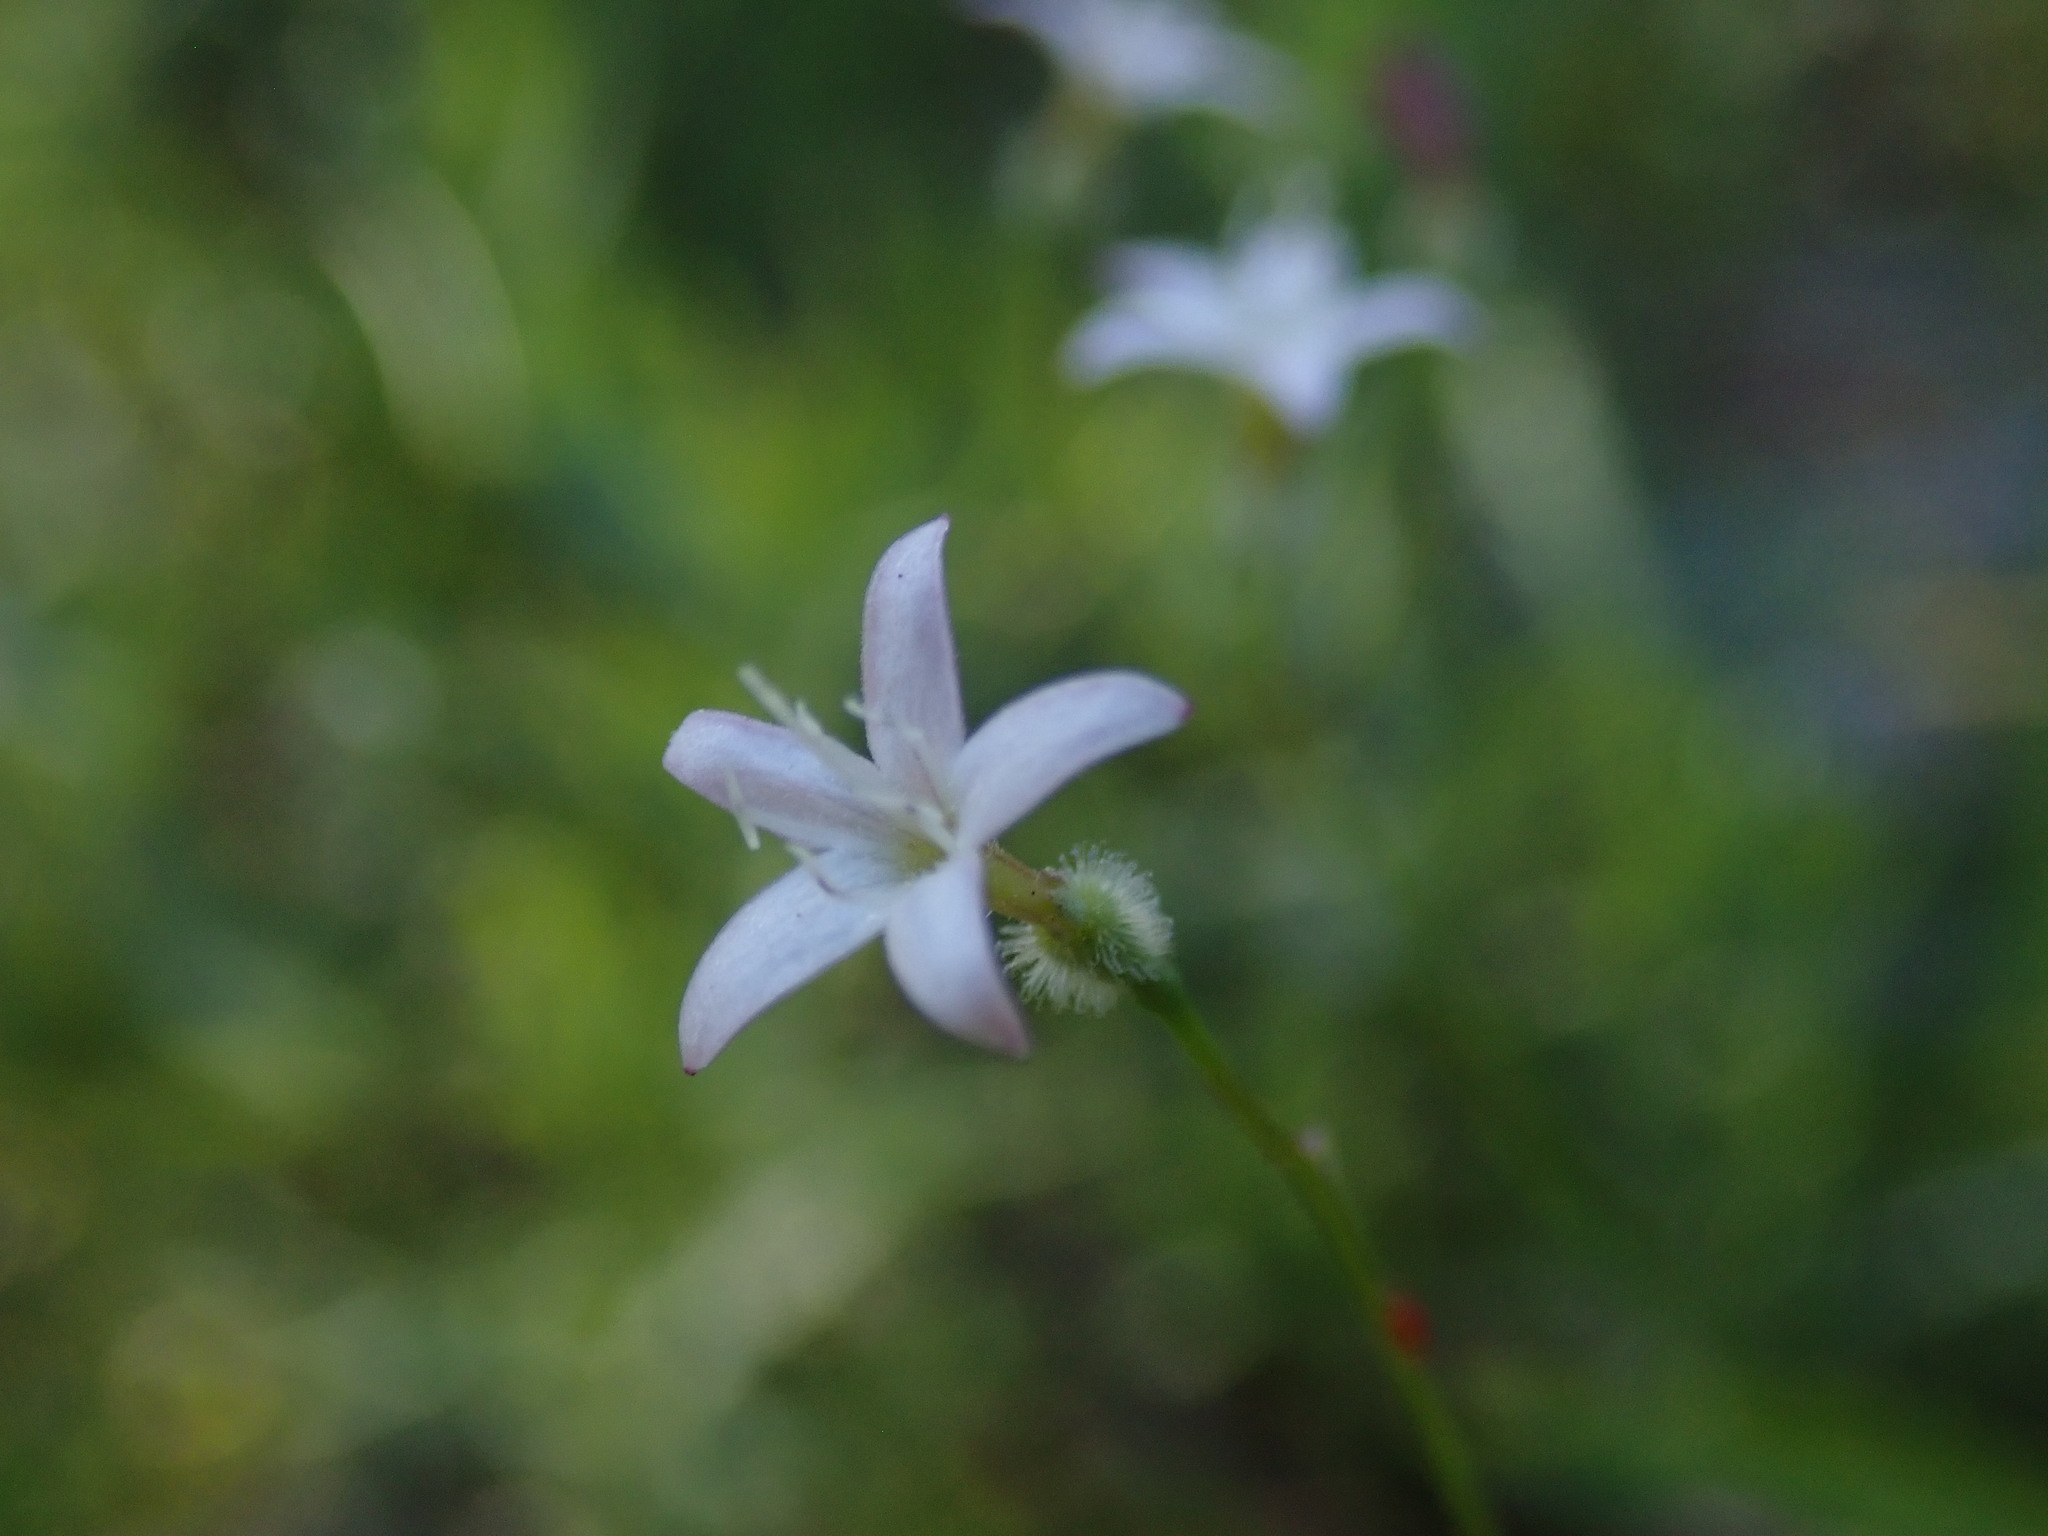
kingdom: Plantae
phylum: Tracheophyta
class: Magnoliopsida
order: Gentianales
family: Rubiaceae
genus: Kelloggia
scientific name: Kelloggia galioides
